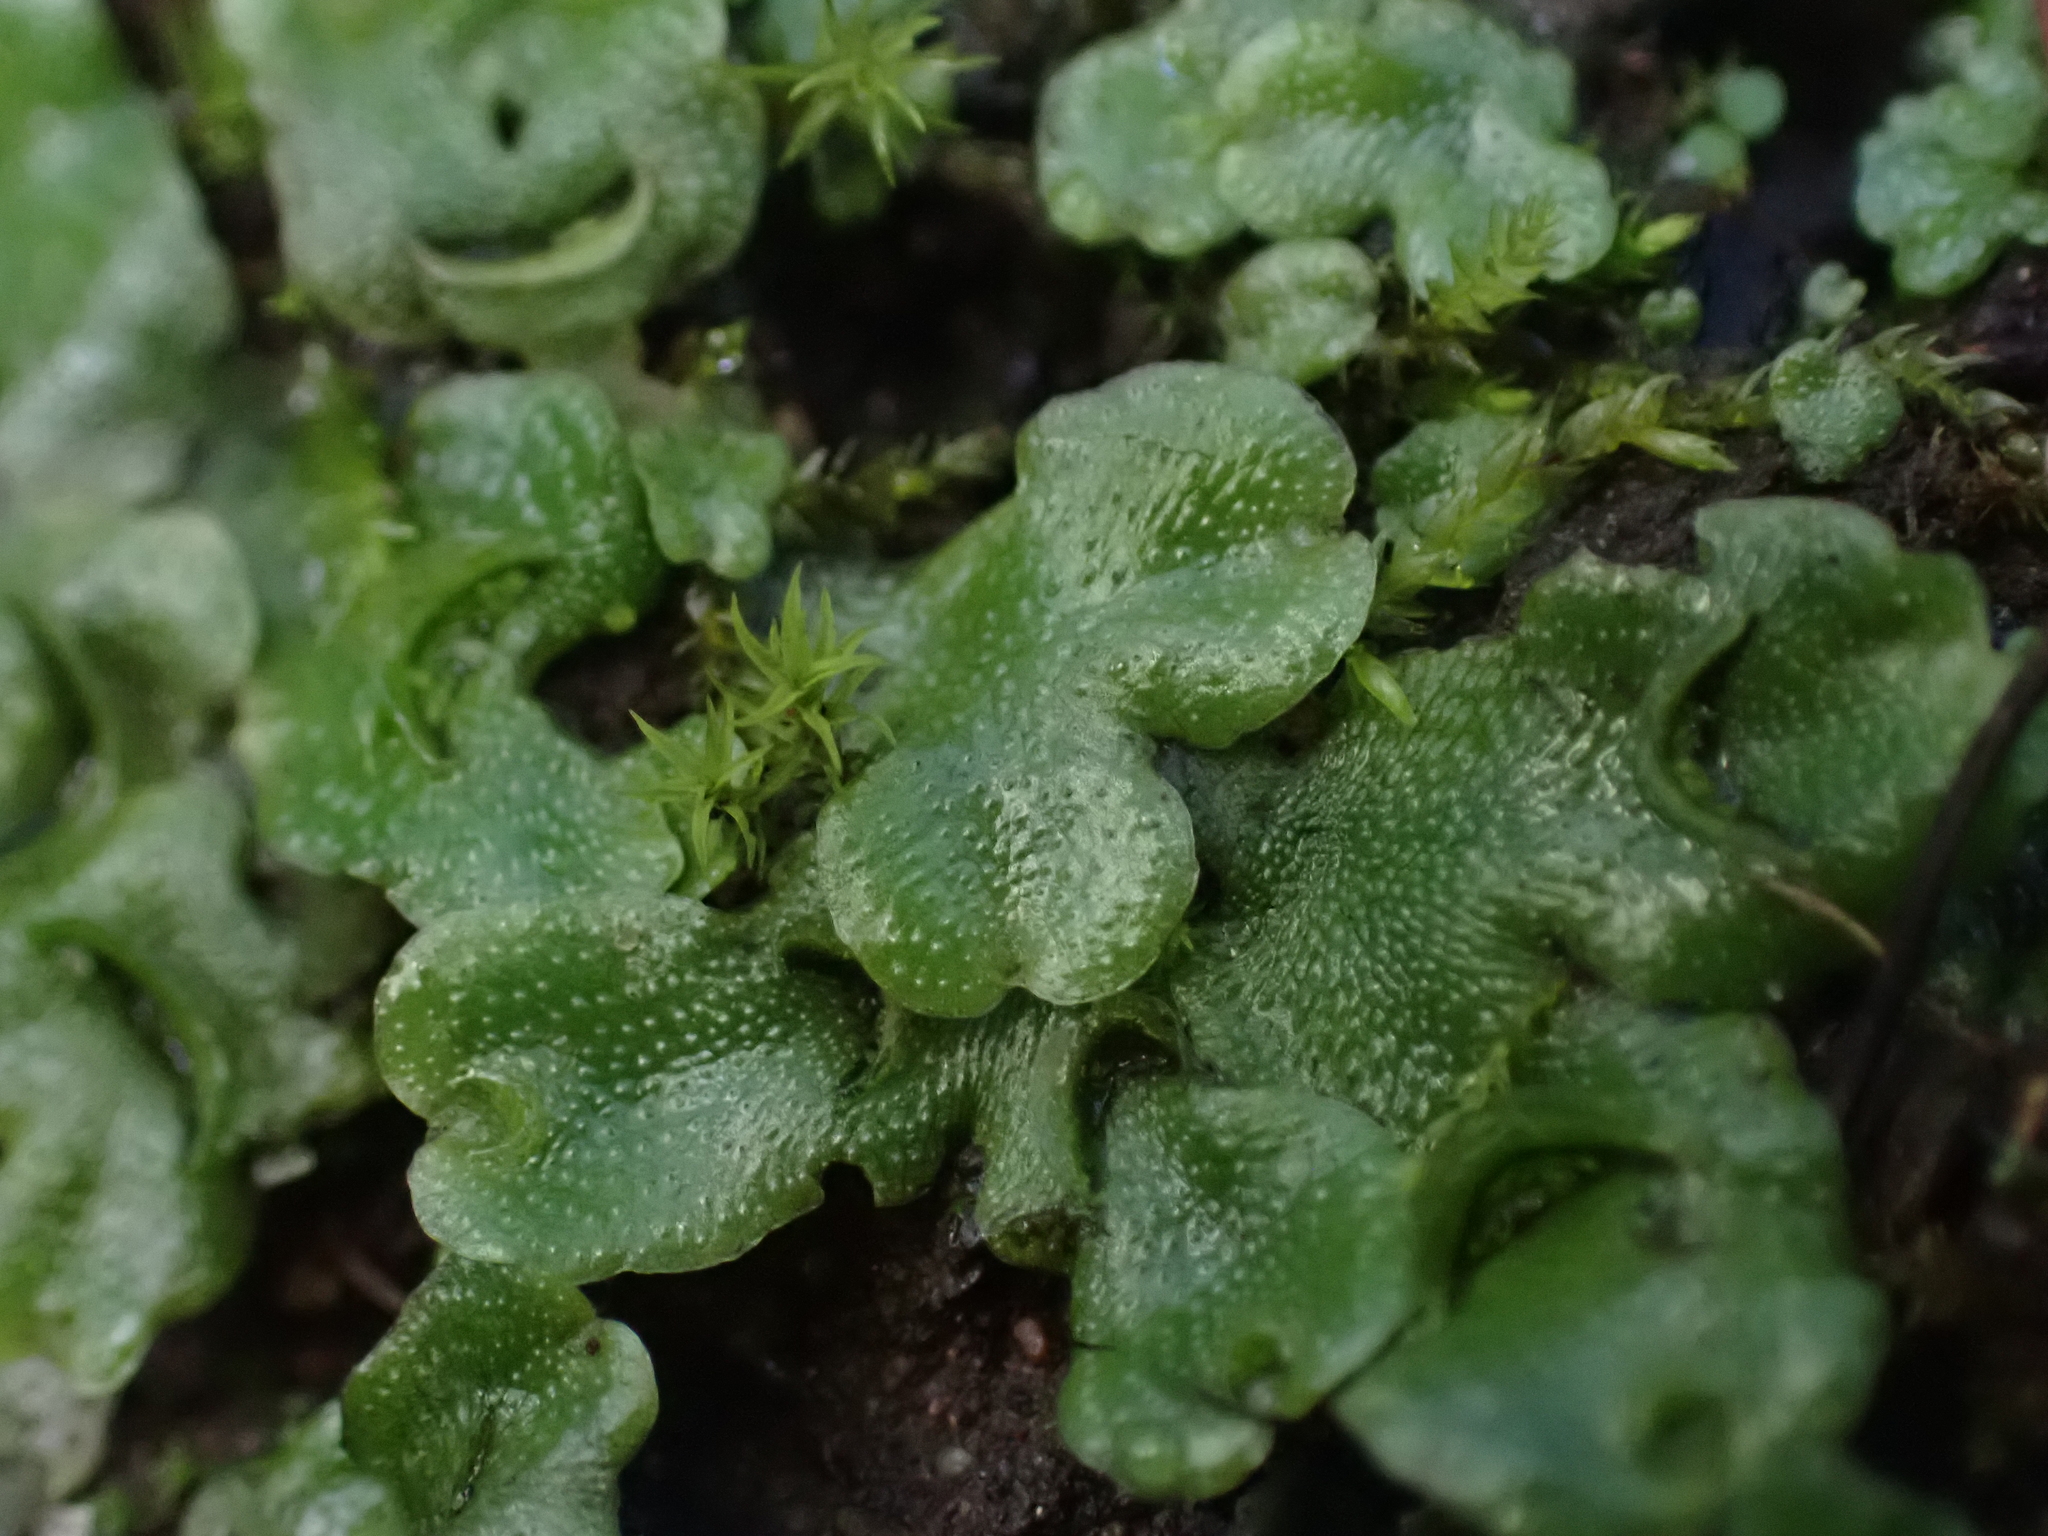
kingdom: Plantae
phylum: Marchantiophyta
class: Marchantiopsida
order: Lunulariales
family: Lunulariaceae
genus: Lunularia
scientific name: Lunularia cruciata
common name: Crescent-cup liverwort
